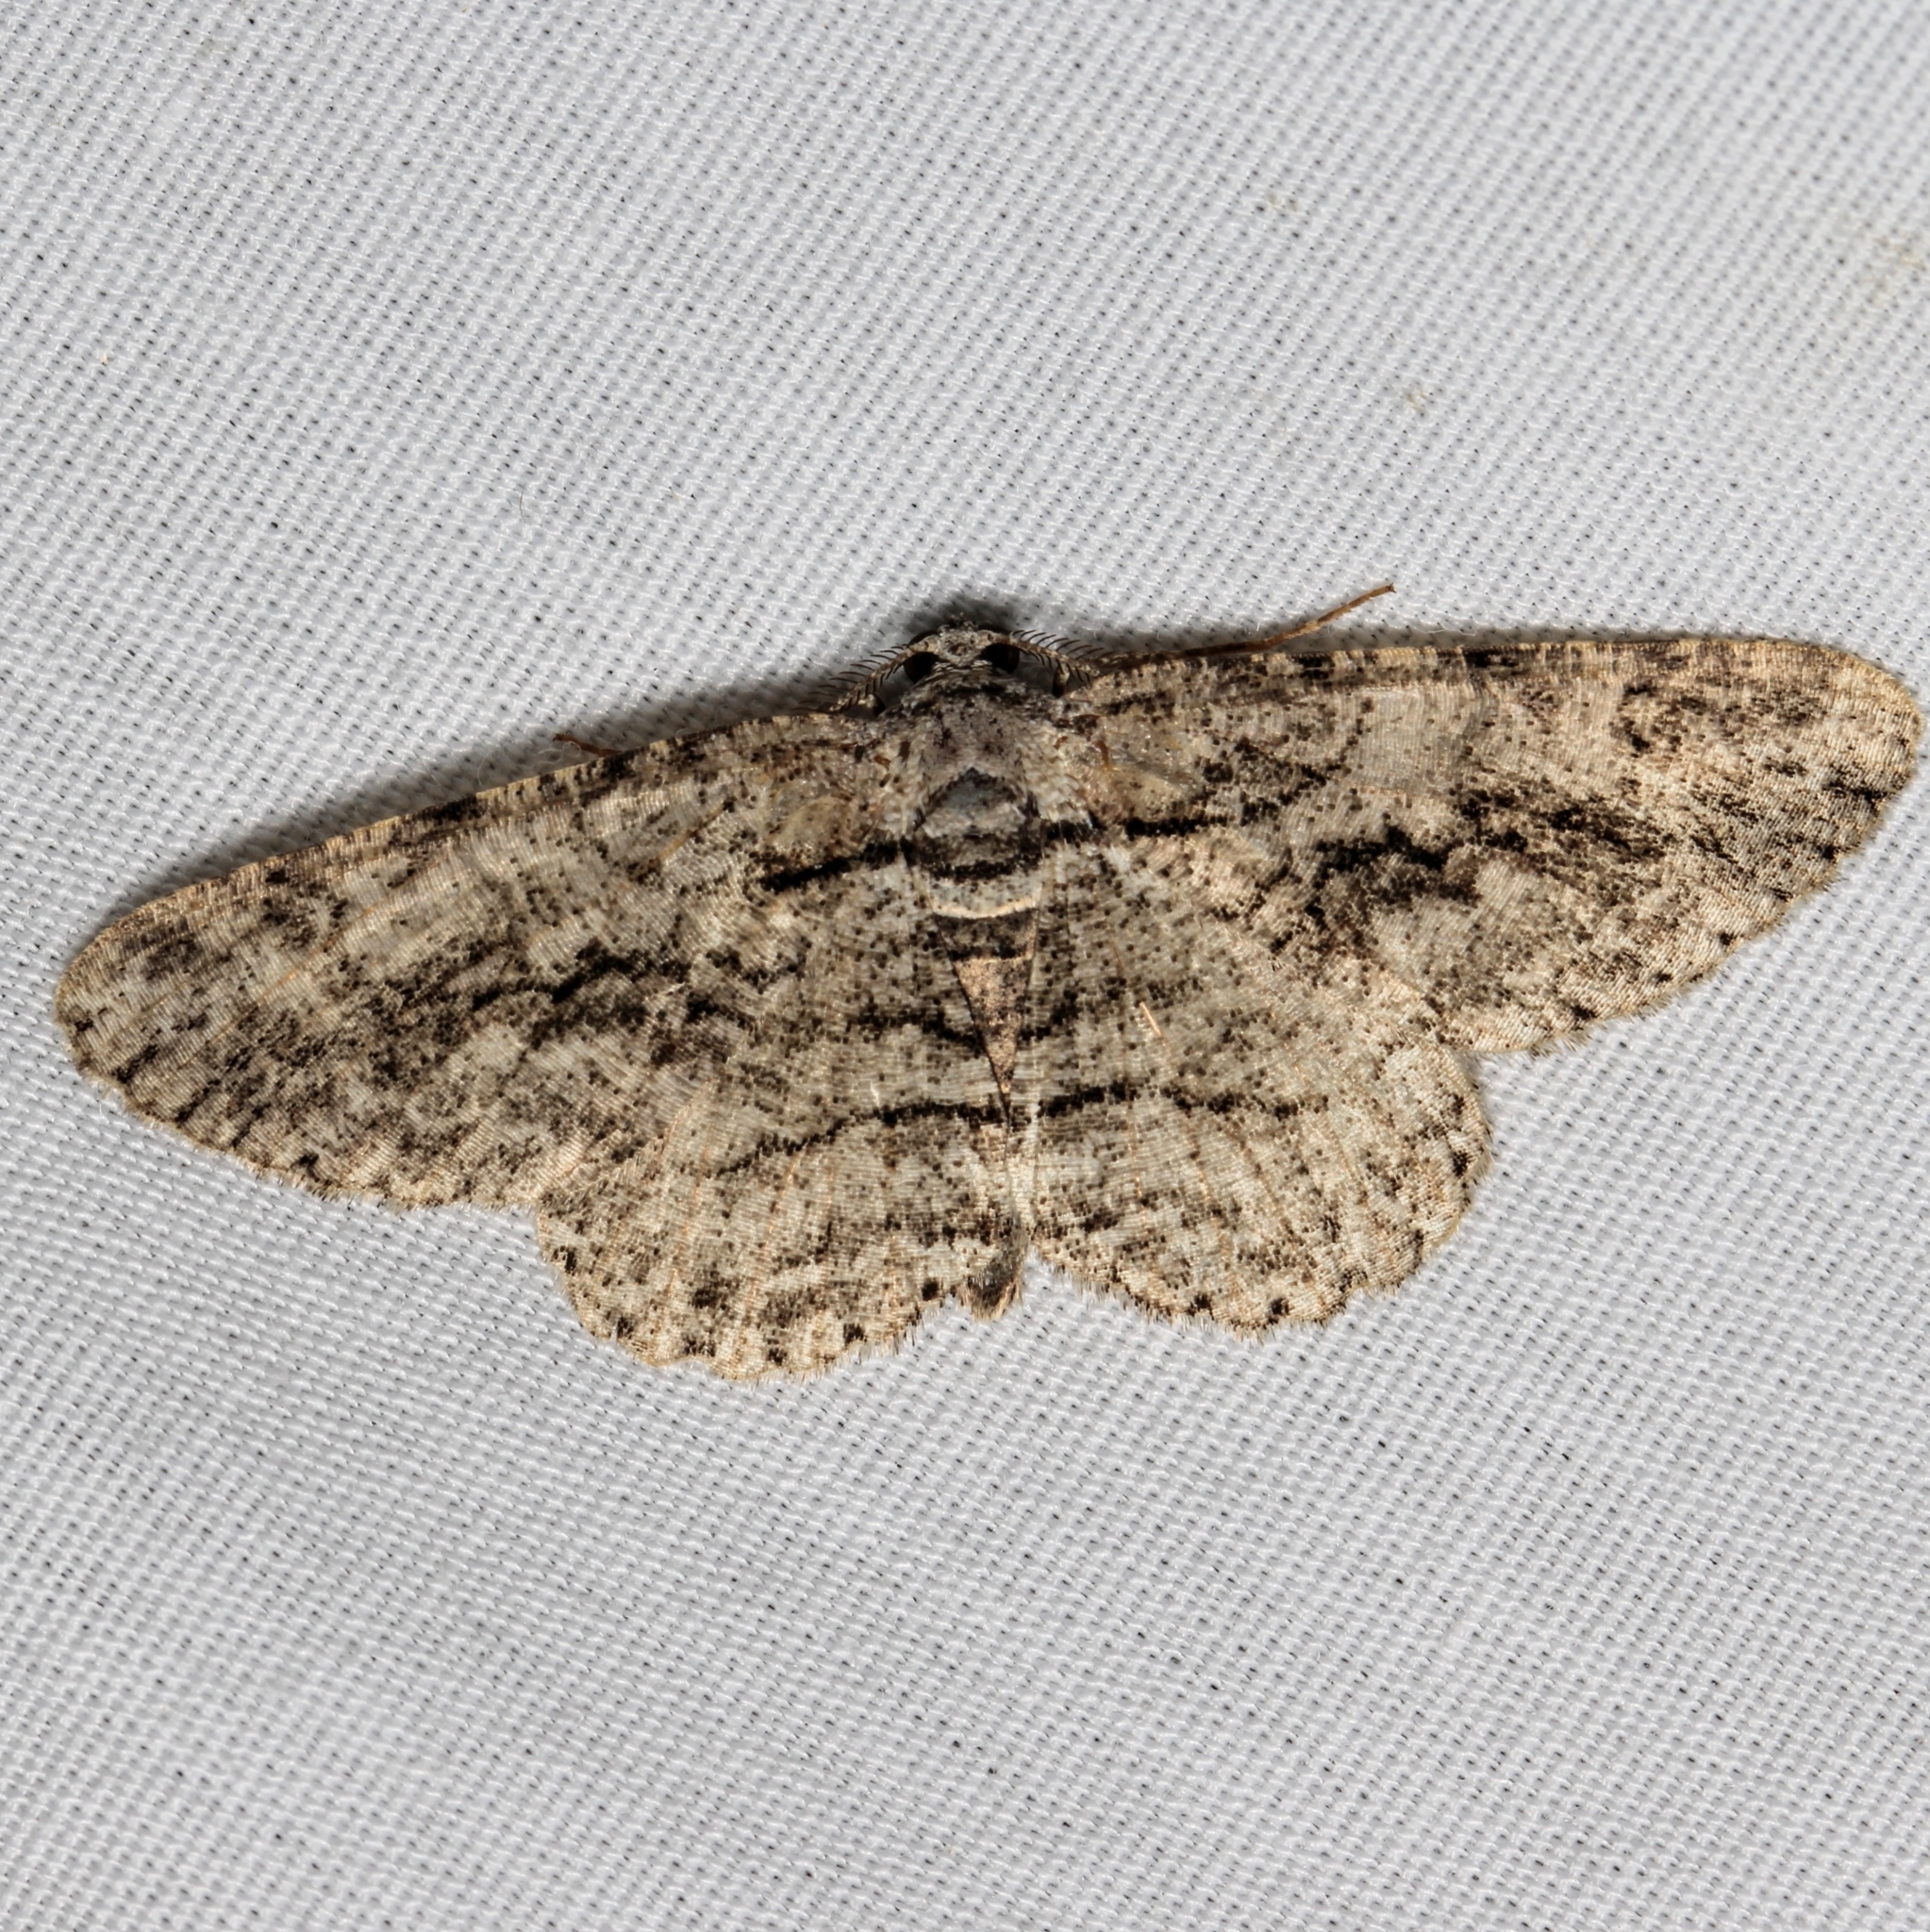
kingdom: Animalia
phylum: Arthropoda
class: Insecta
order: Lepidoptera
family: Geometridae
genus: Anavitrinella
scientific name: Anavitrinella pampinaria
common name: Common gray
